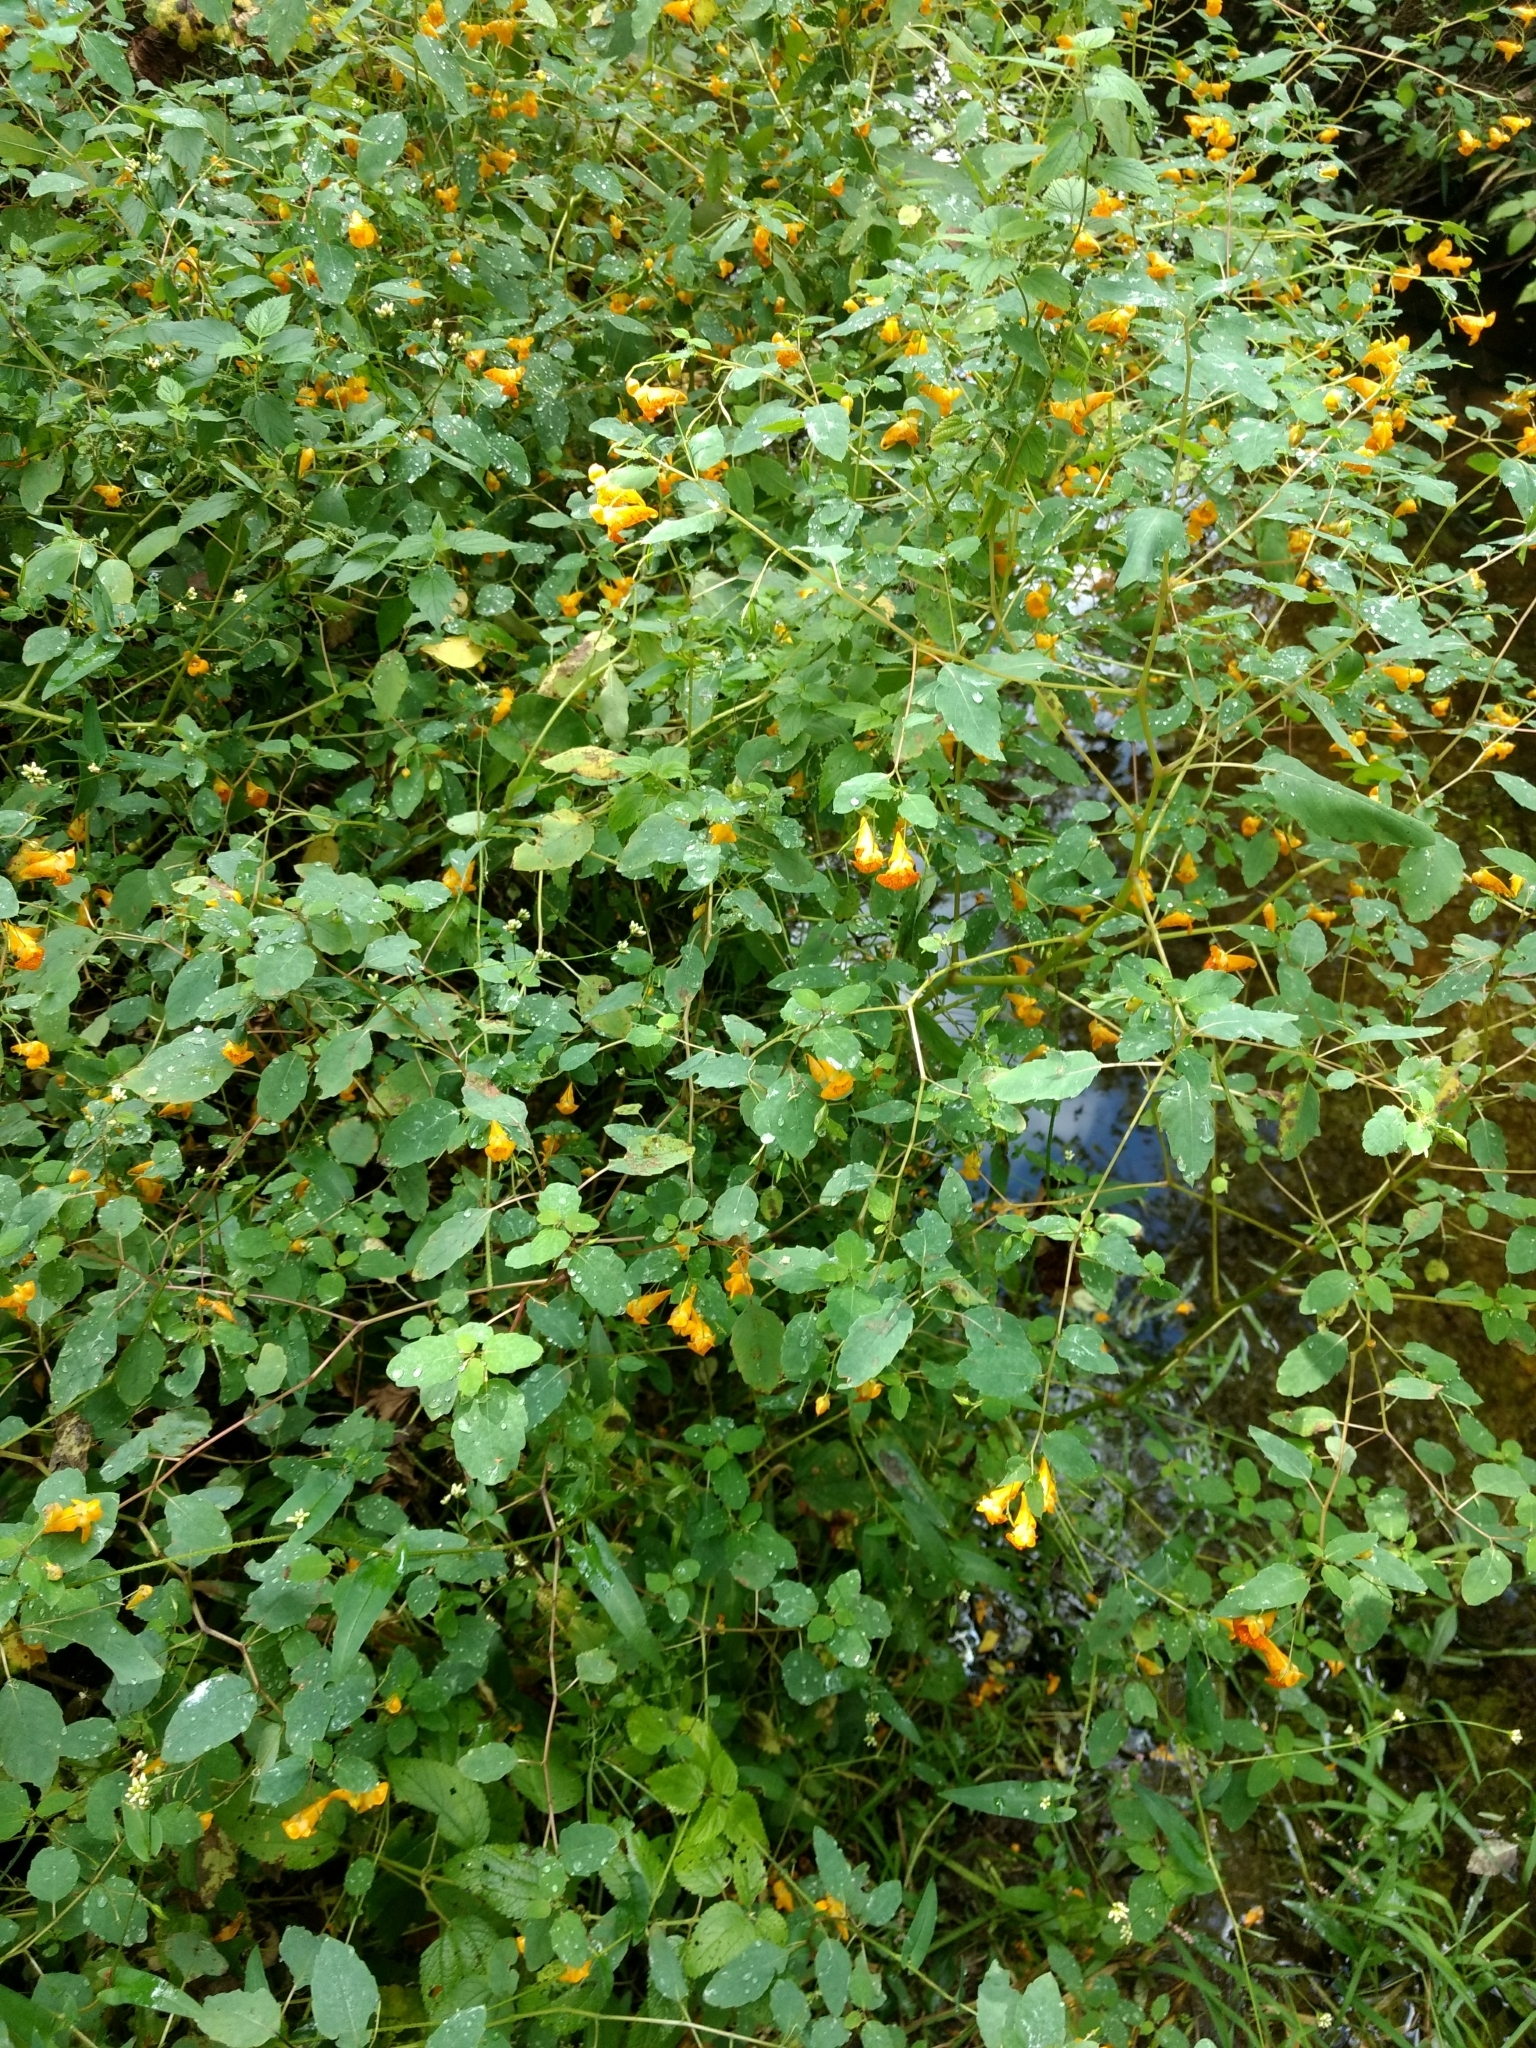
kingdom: Plantae
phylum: Tracheophyta
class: Magnoliopsida
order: Ericales
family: Balsaminaceae
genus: Impatiens
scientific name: Impatiens capensis
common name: Orange balsam
